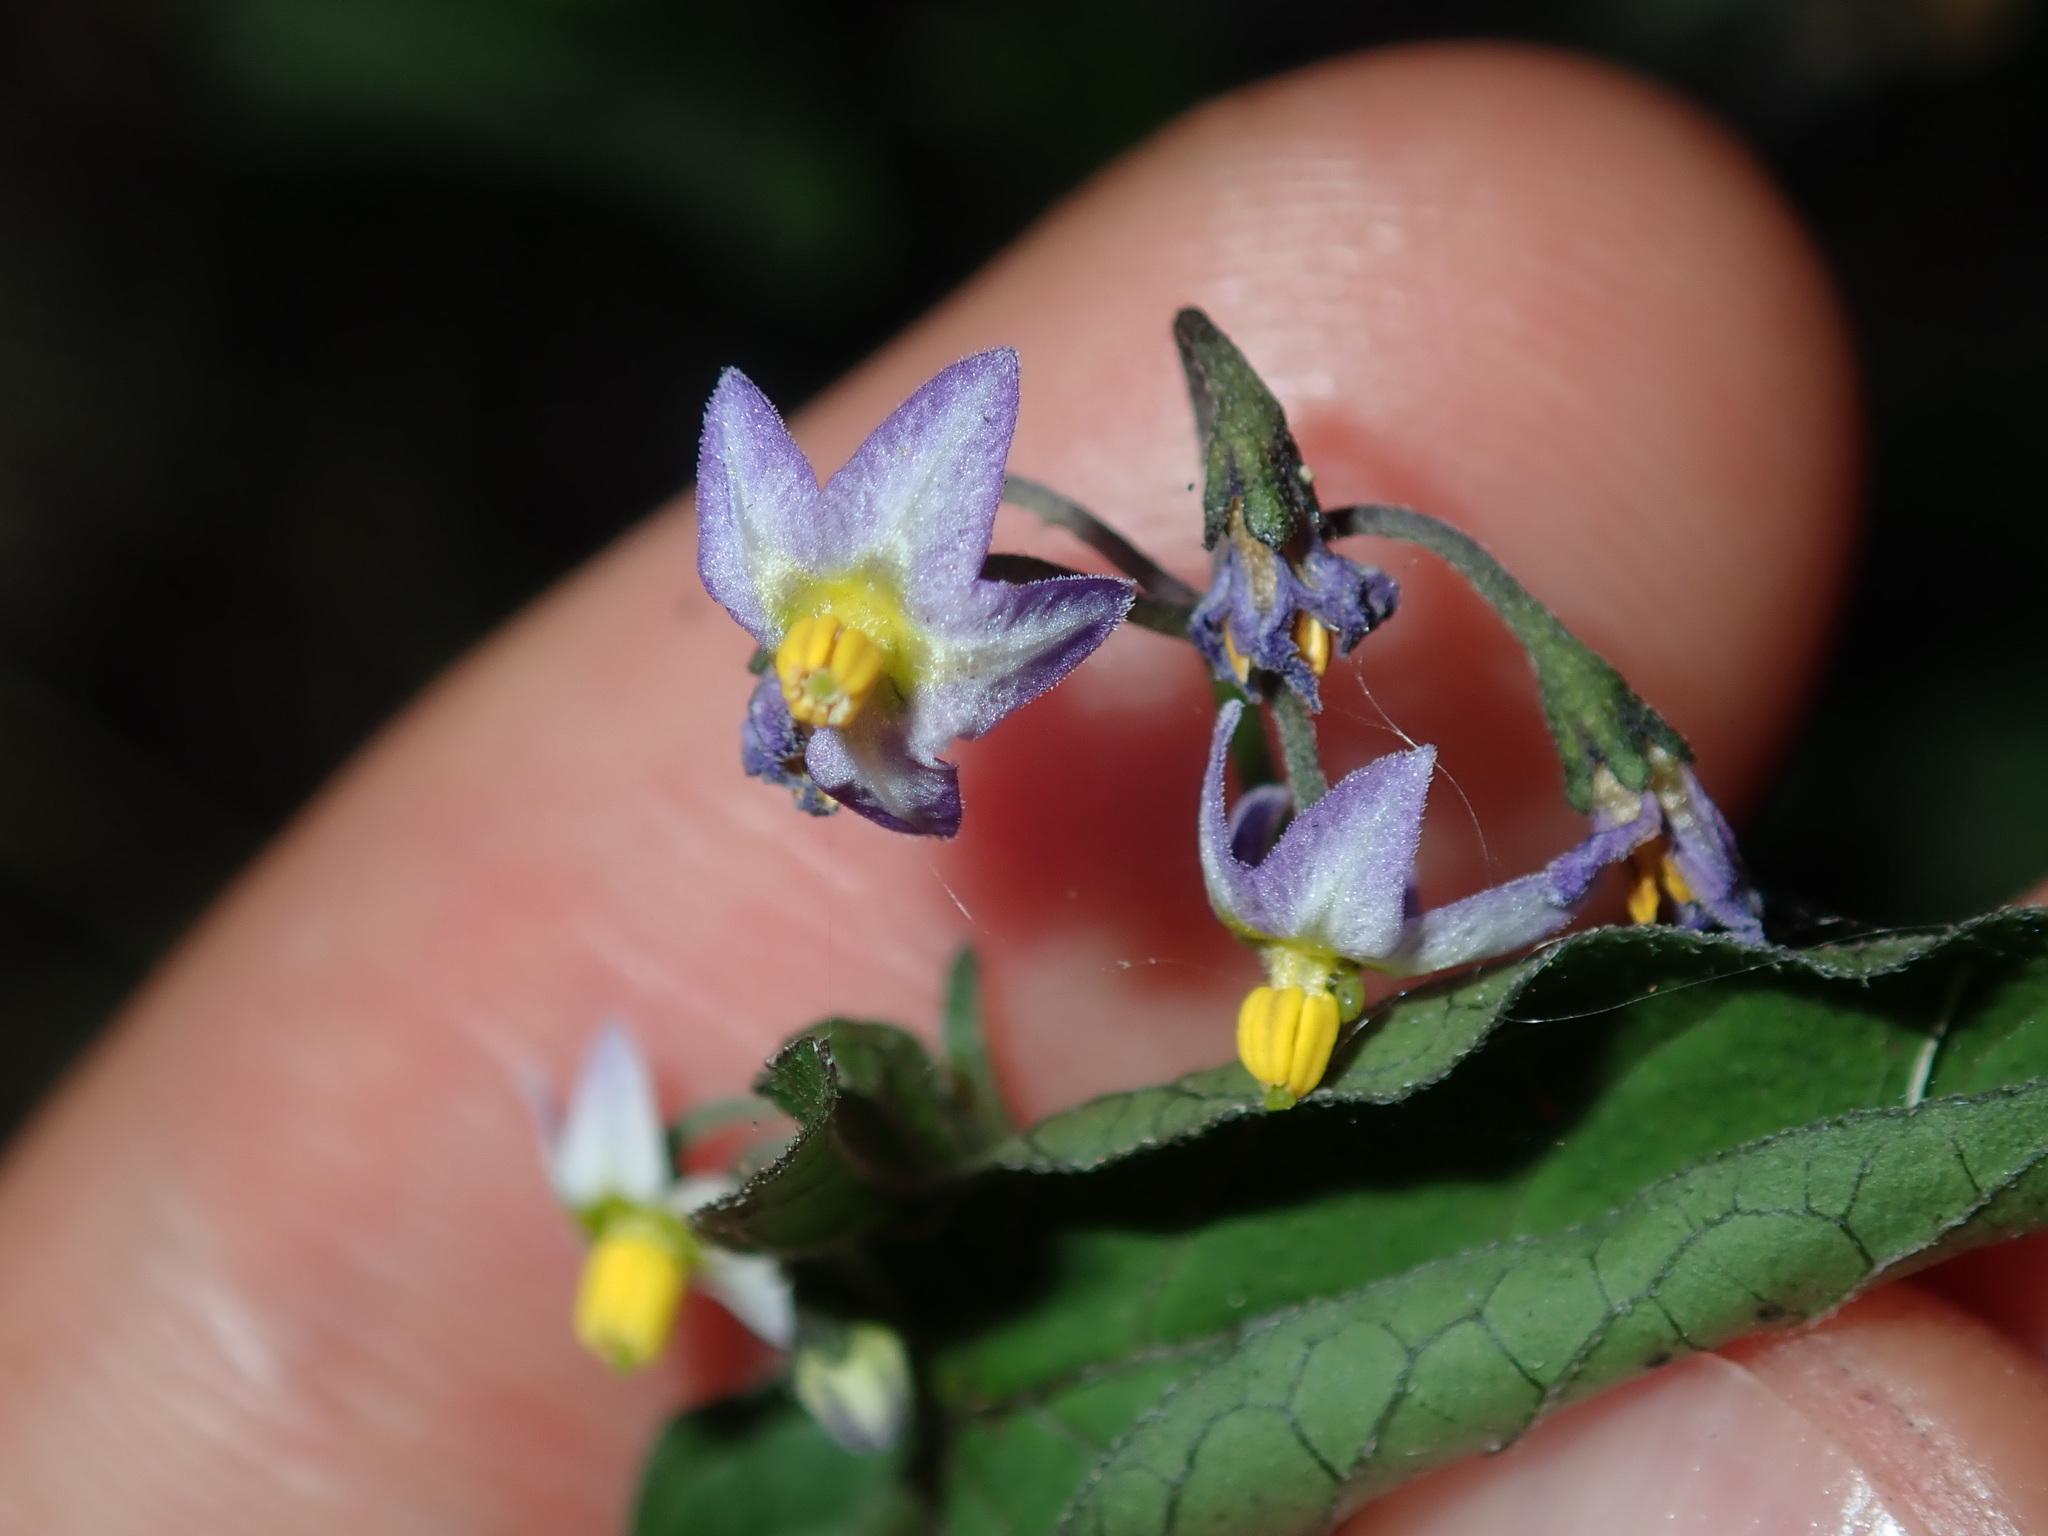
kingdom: Plantae
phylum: Tracheophyta
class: Magnoliopsida
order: Solanales
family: Solanaceae
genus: Solanum
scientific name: Solanum americanum
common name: American black nightshade
